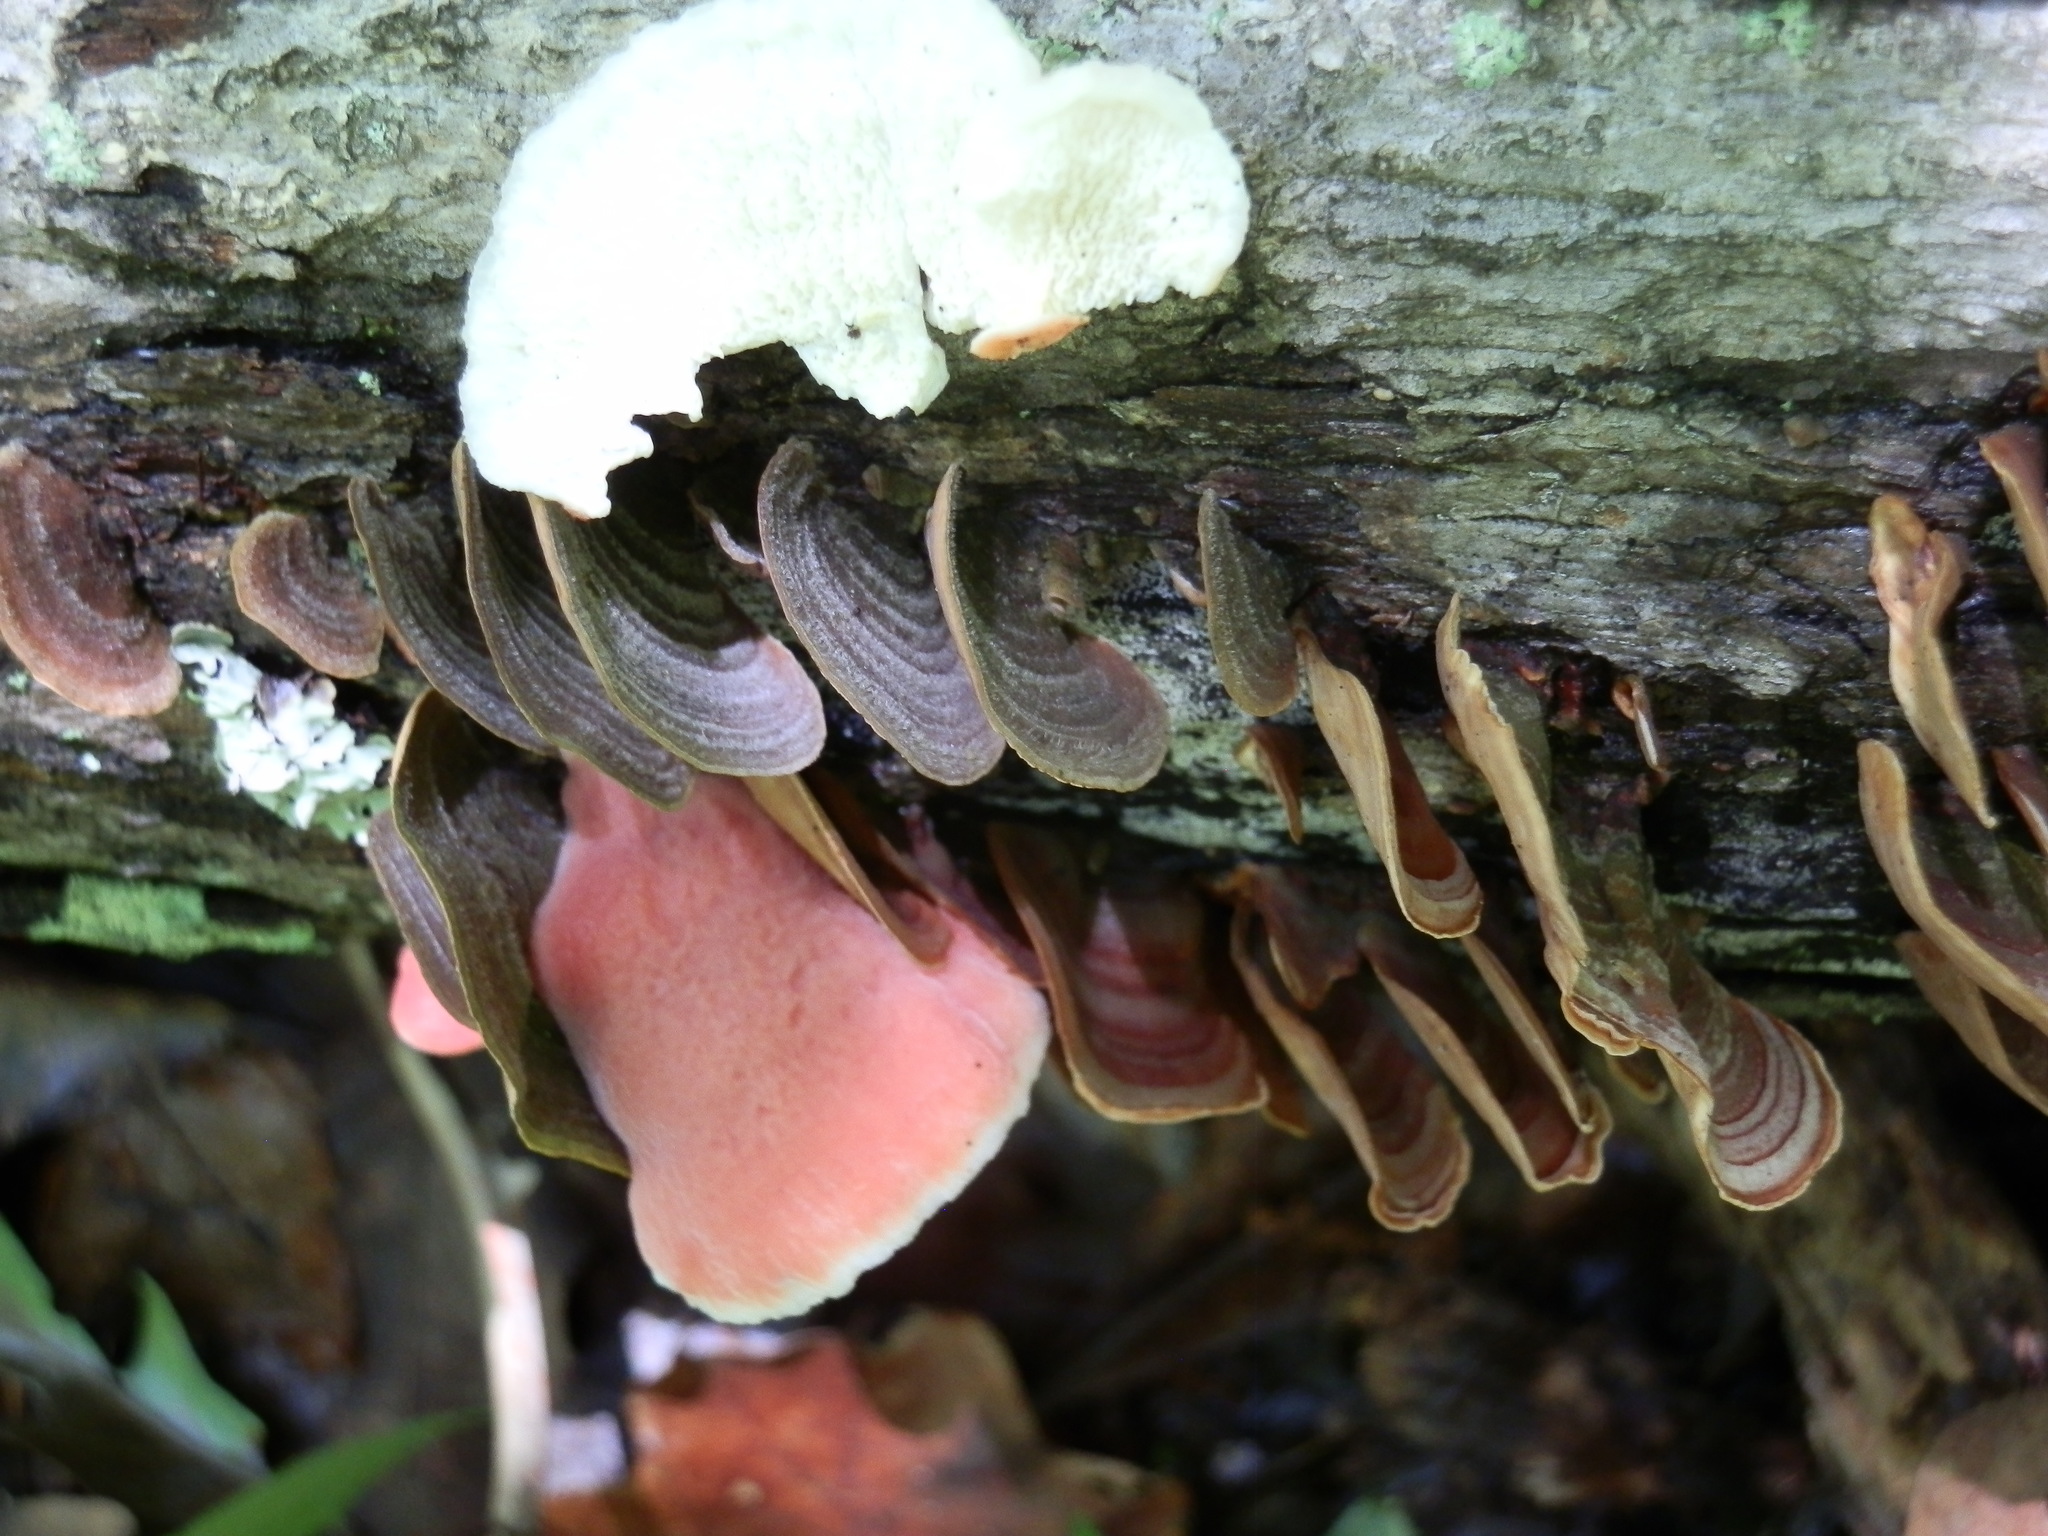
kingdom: Fungi
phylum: Basidiomycota
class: Agaricomycetes
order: Polyporales
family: Irpicaceae
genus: Byssomerulius
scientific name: Byssomerulius incarnatus
